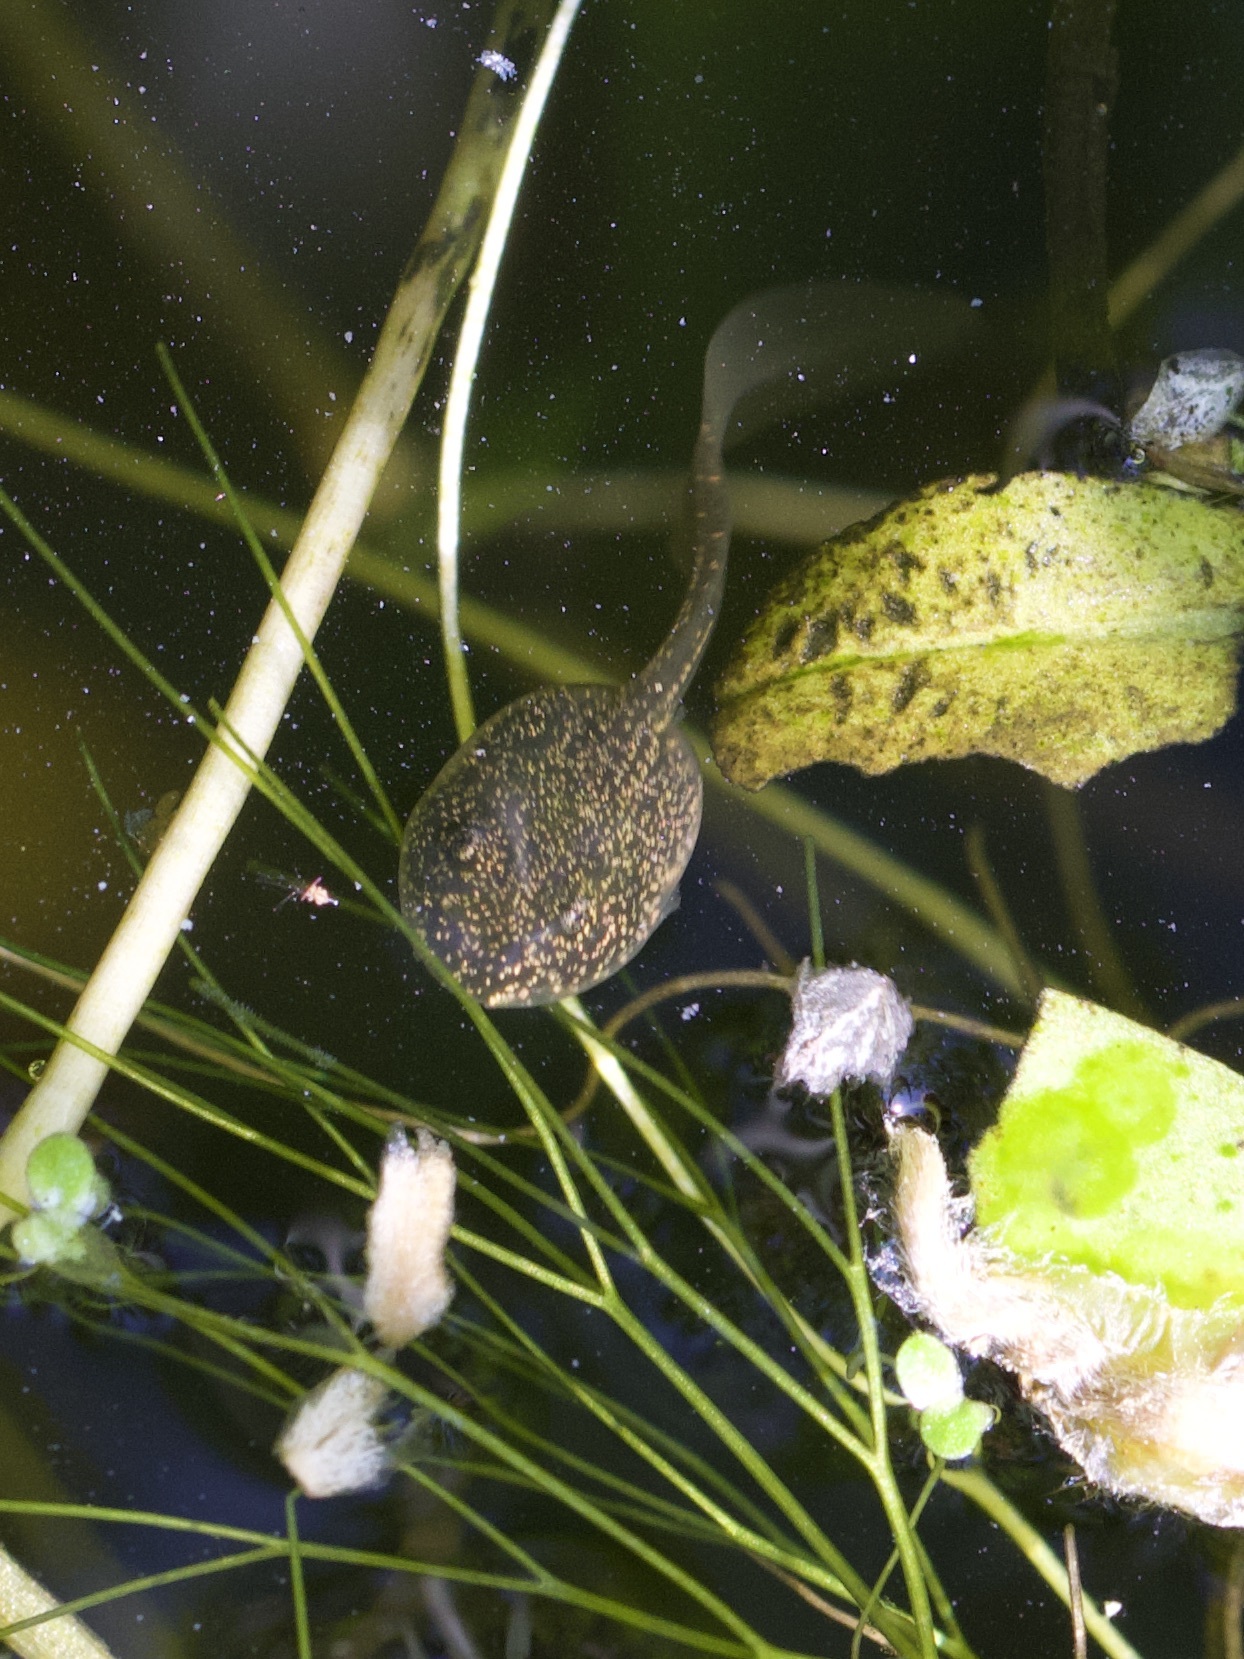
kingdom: Animalia
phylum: Chordata
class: Amphibia
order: Anura
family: Ranidae
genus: Rana
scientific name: Rana temporaria
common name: Common frog
